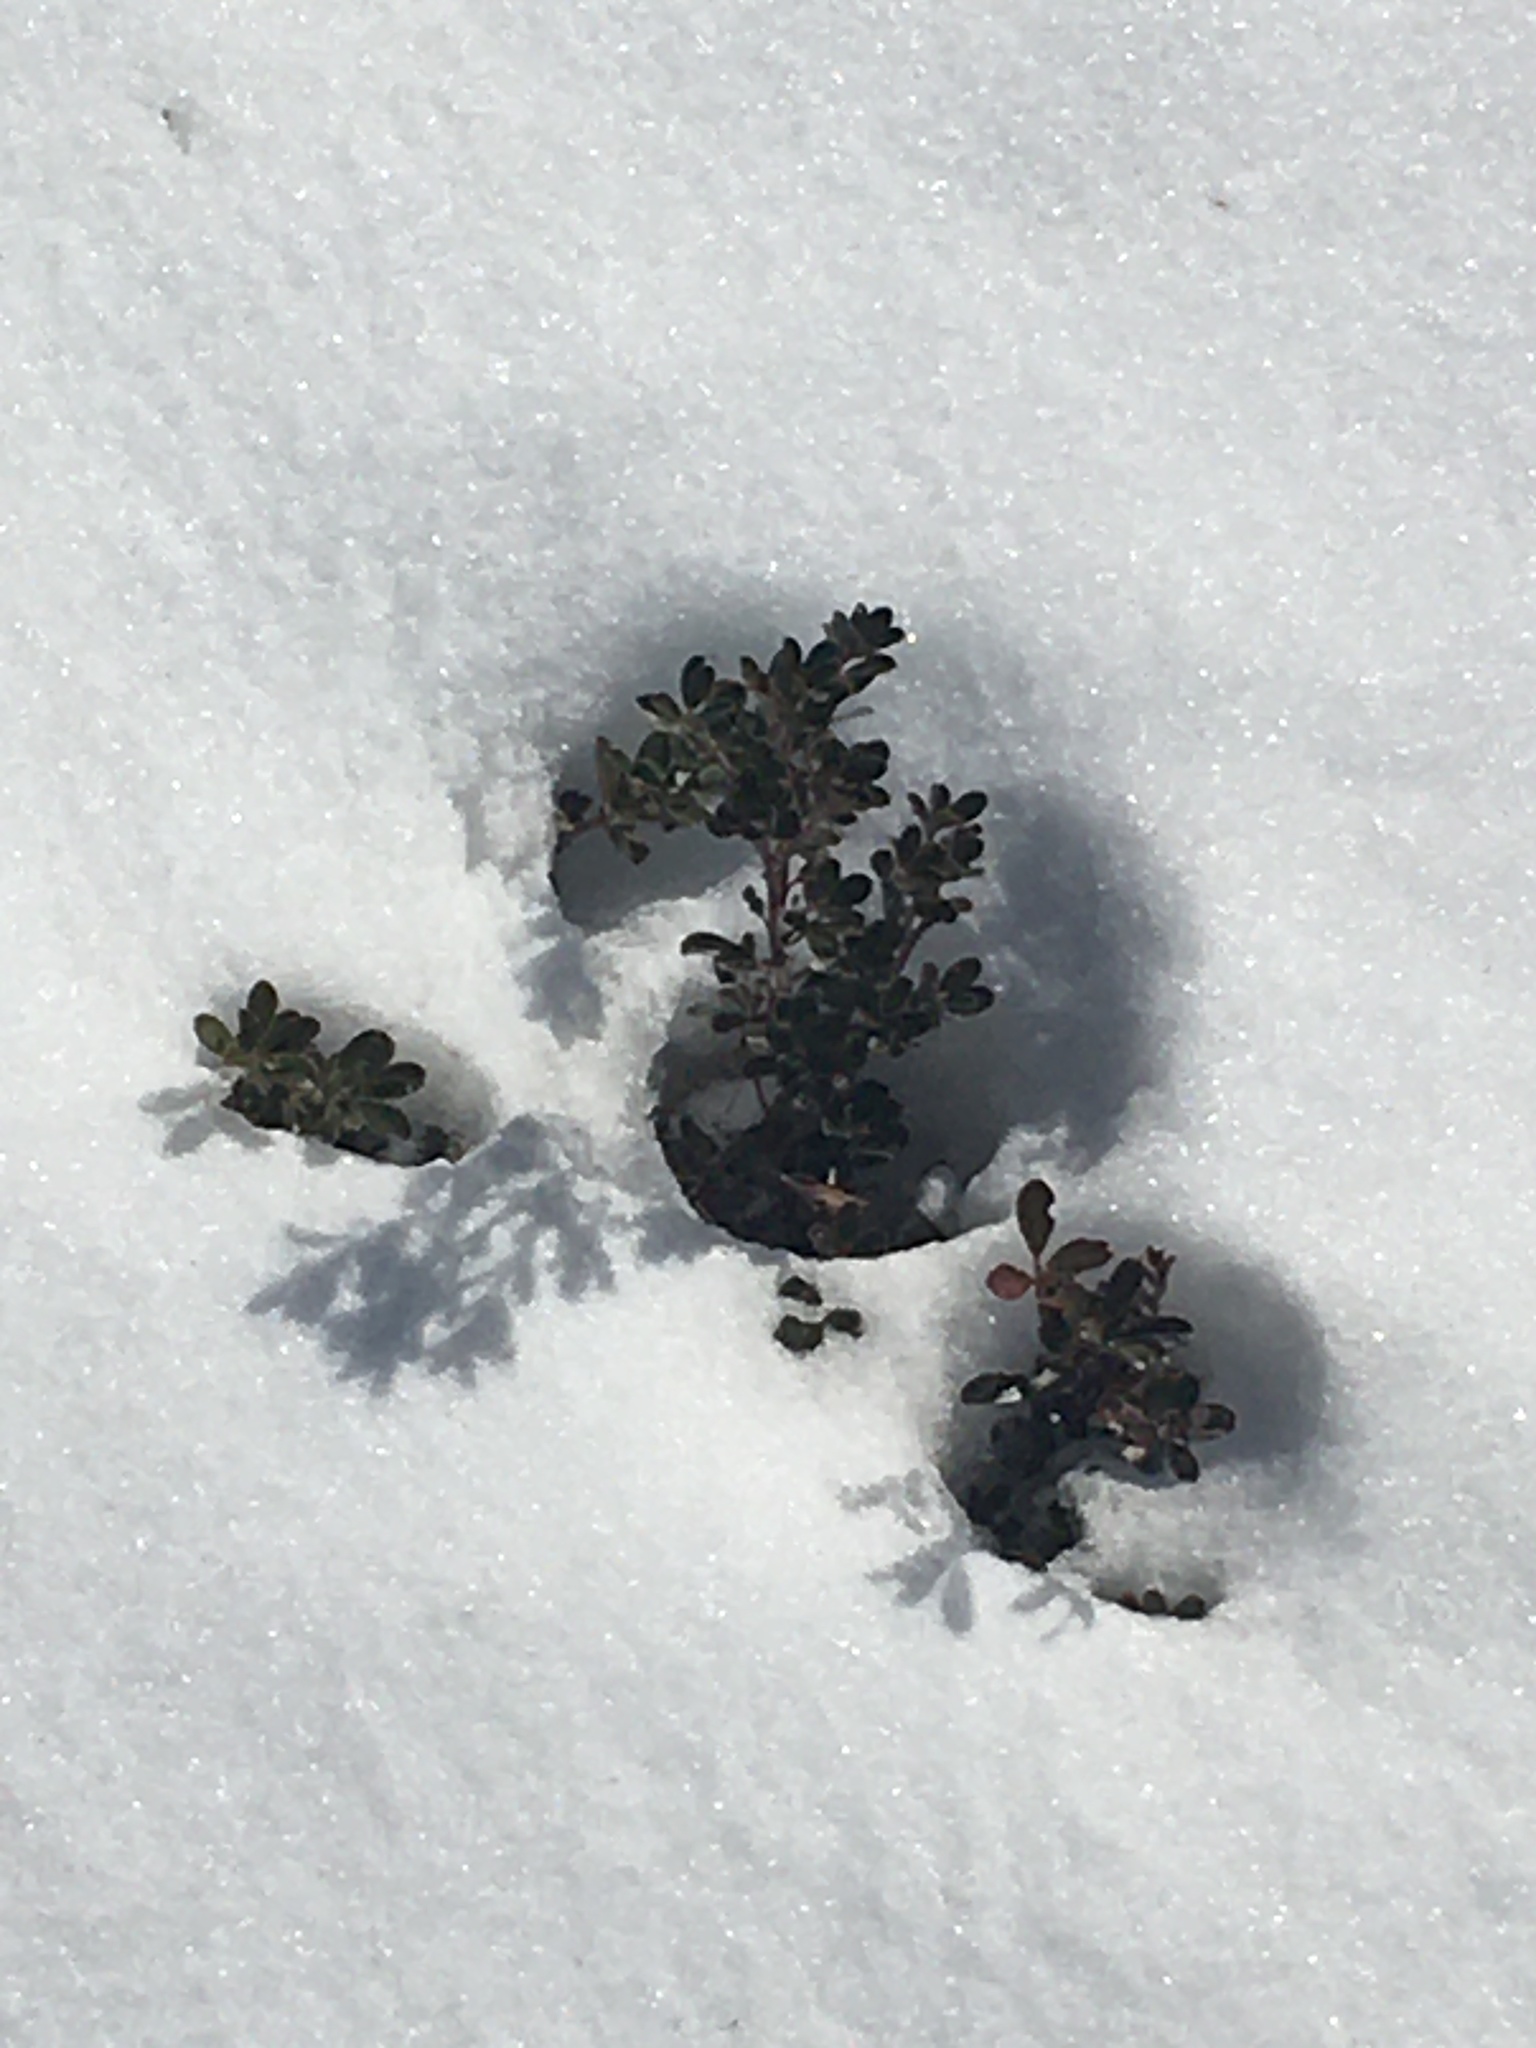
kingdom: Plantae
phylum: Tracheophyta
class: Magnoliopsida
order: Ericales
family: Ericaceae
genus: Arctostaphylos
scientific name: Arctostaphylos uva-ursi
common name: Bearberry
